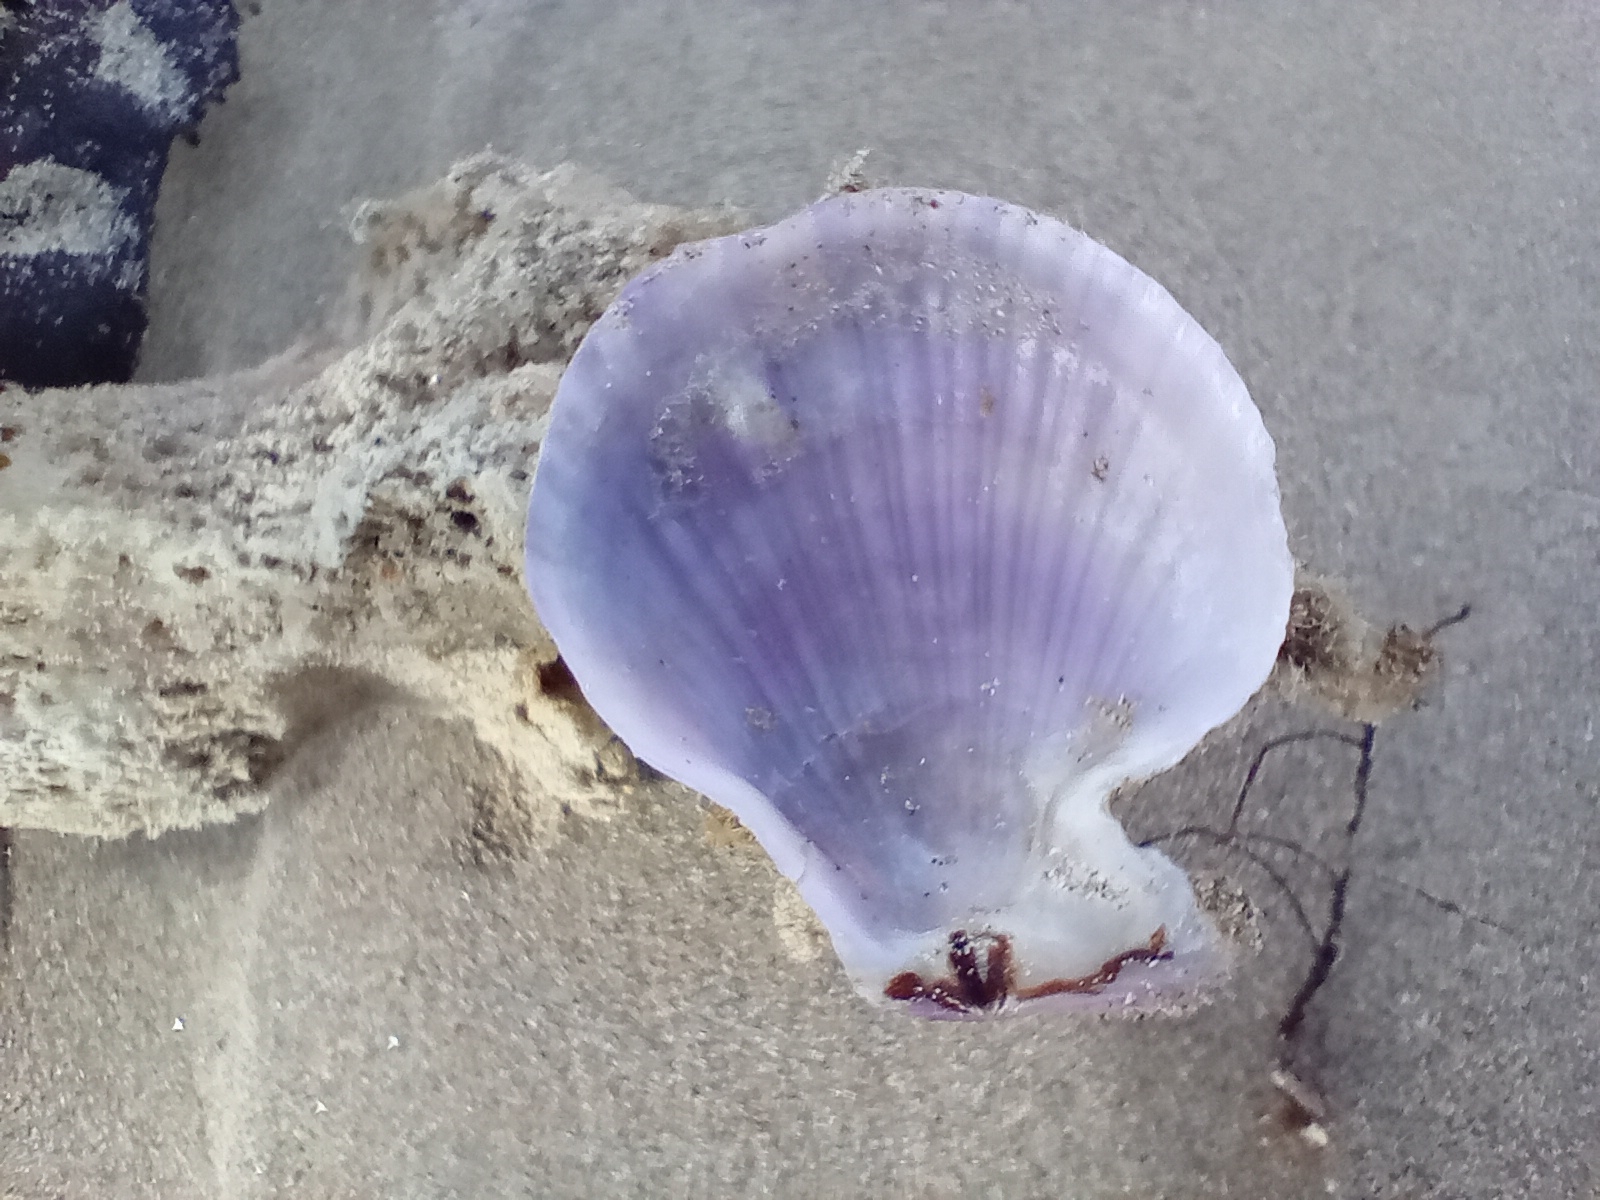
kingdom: Animalia
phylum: Mollusca
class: Bivalvia
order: Pectinida
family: Pectinidae
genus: Talochlamys
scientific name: Talochlamys zelandiae
